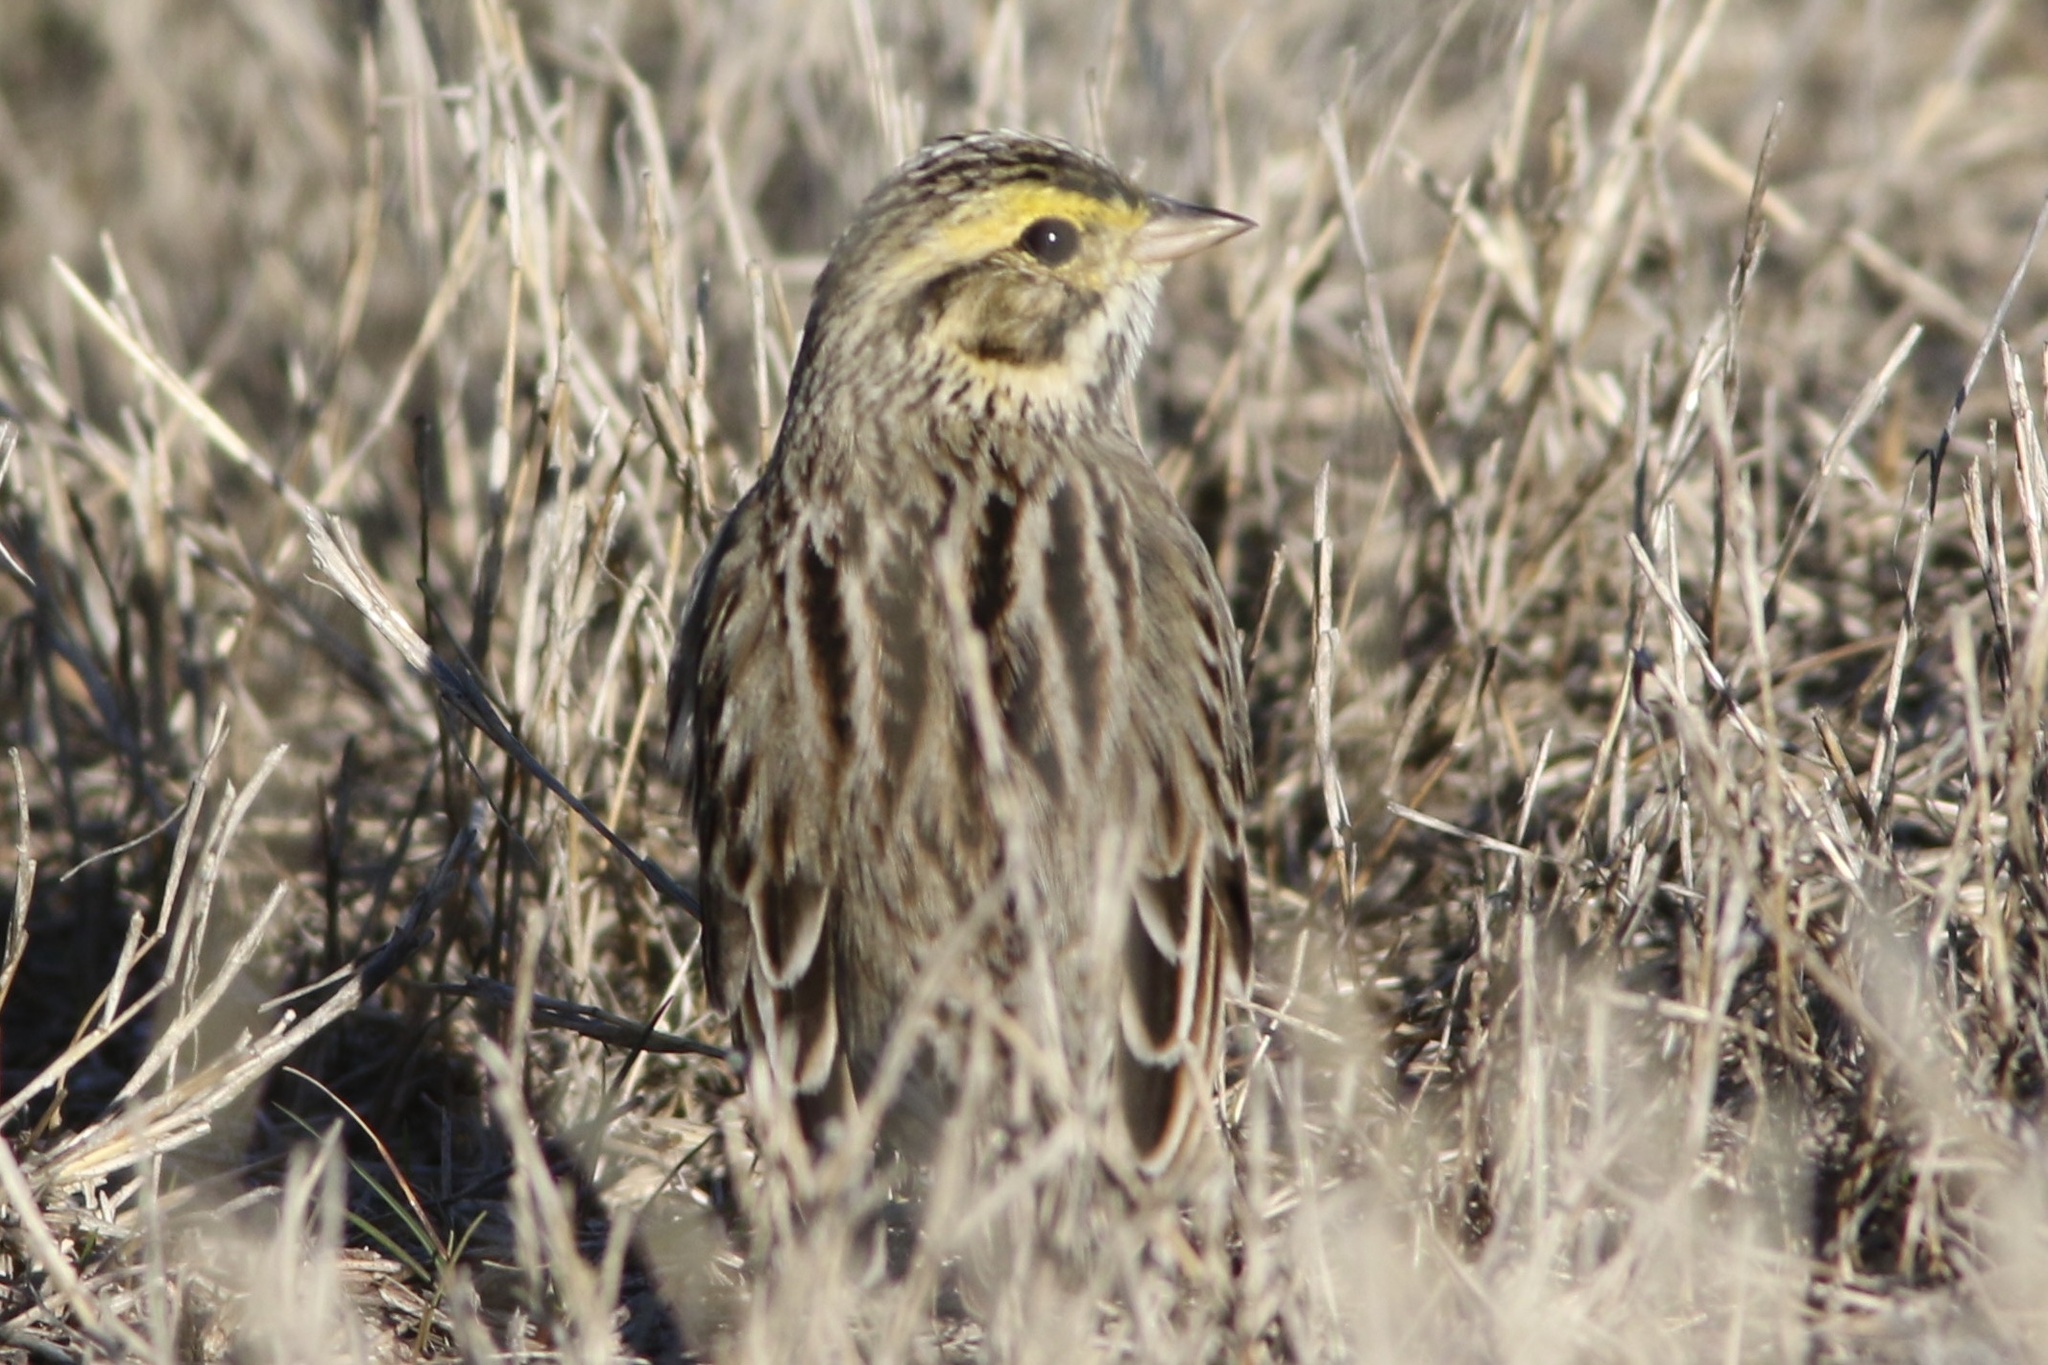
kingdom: Animalia
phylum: Chordata
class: Aves
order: Passeriformes
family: Passerellidae
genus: Passerculus
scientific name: Passerculus sandwichensis
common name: Savannah sparrow
